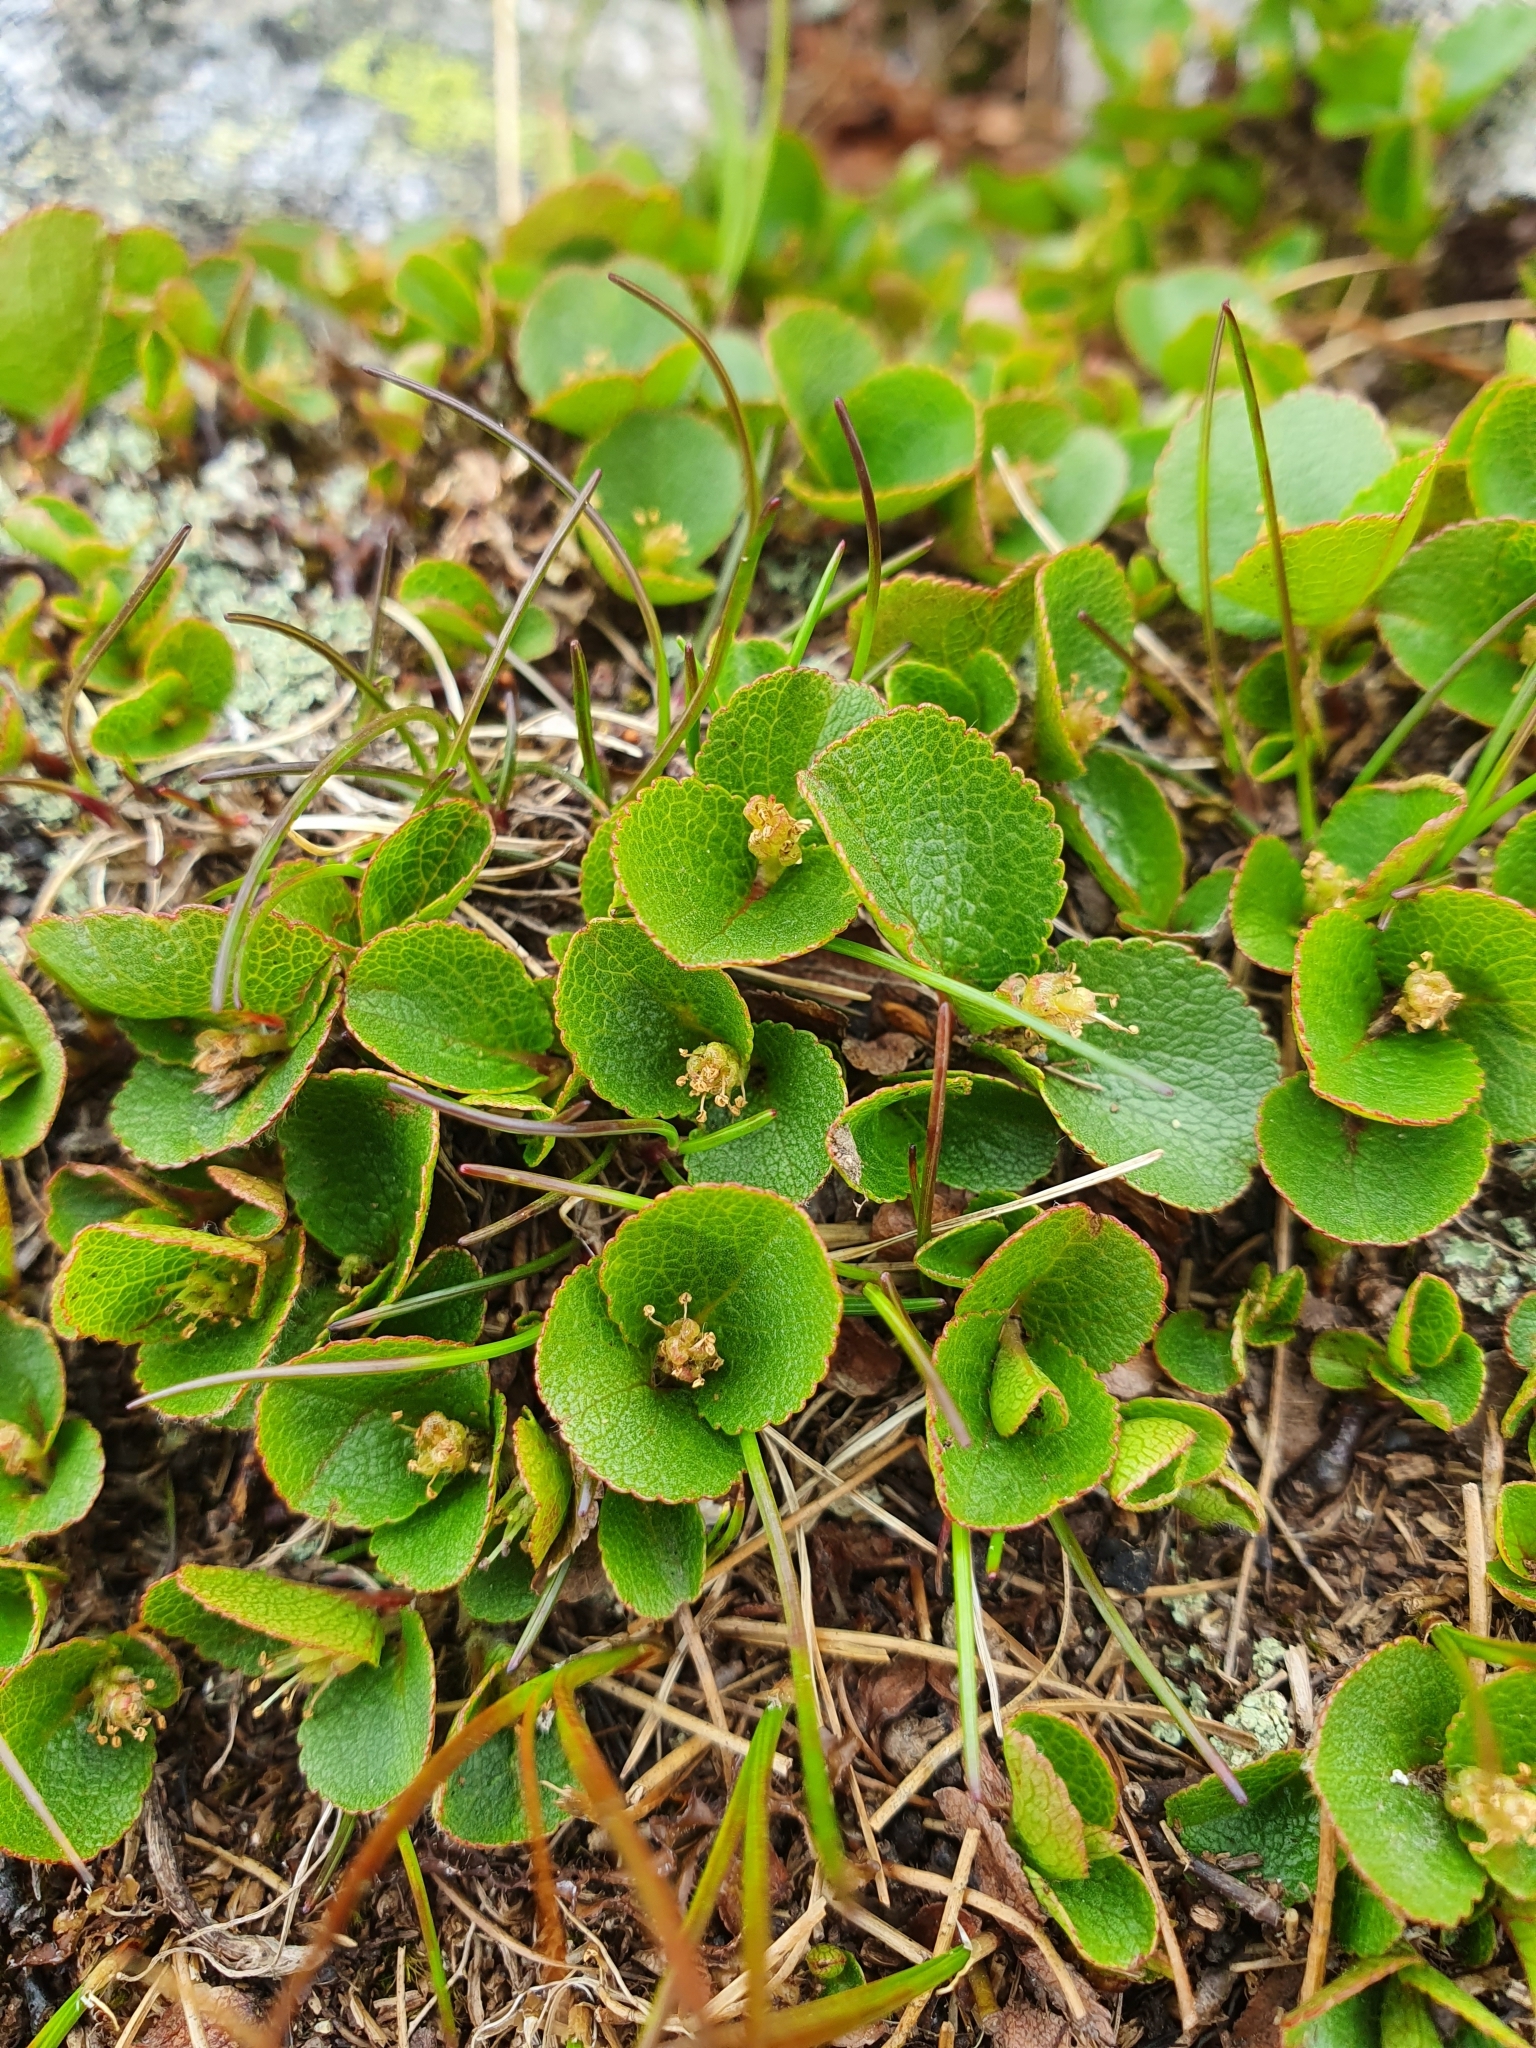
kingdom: Plantae
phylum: Tracheophyta
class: Magnoliopsida
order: Malpighiales
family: Salicaceae
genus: Salix
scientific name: Salix herbacea
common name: Dwarf willow
